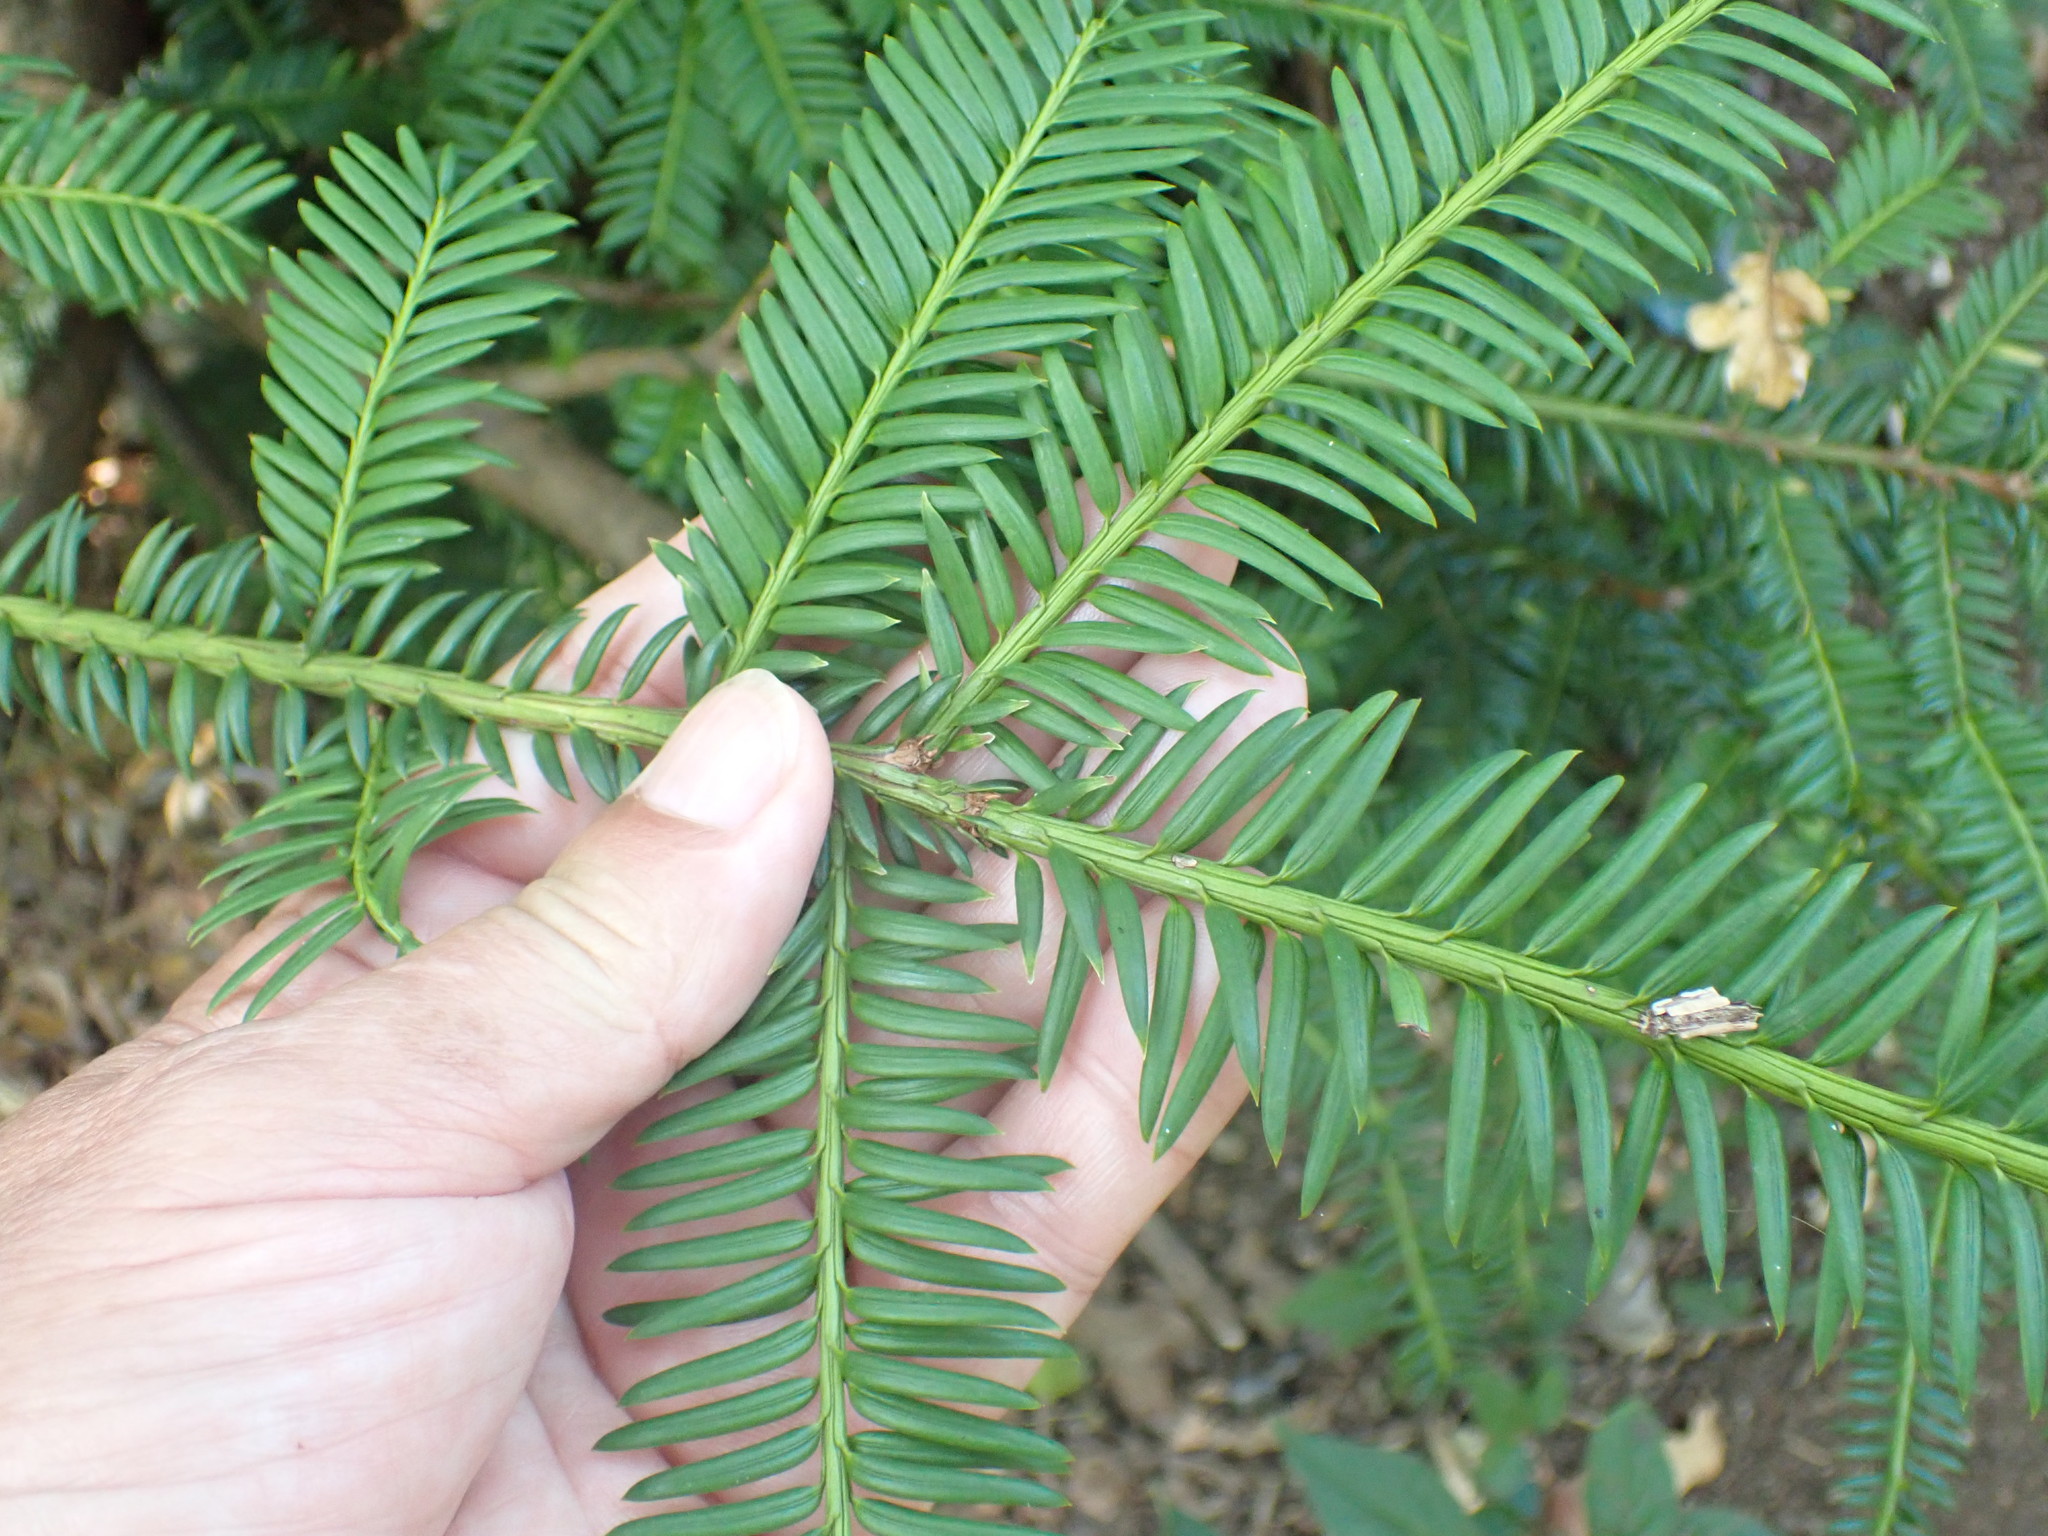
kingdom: Plantae
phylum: Tracheophyta
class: Pinopsida
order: Pinales
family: Taxaceae
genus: Taxus
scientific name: Taxus baccata
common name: Yew
